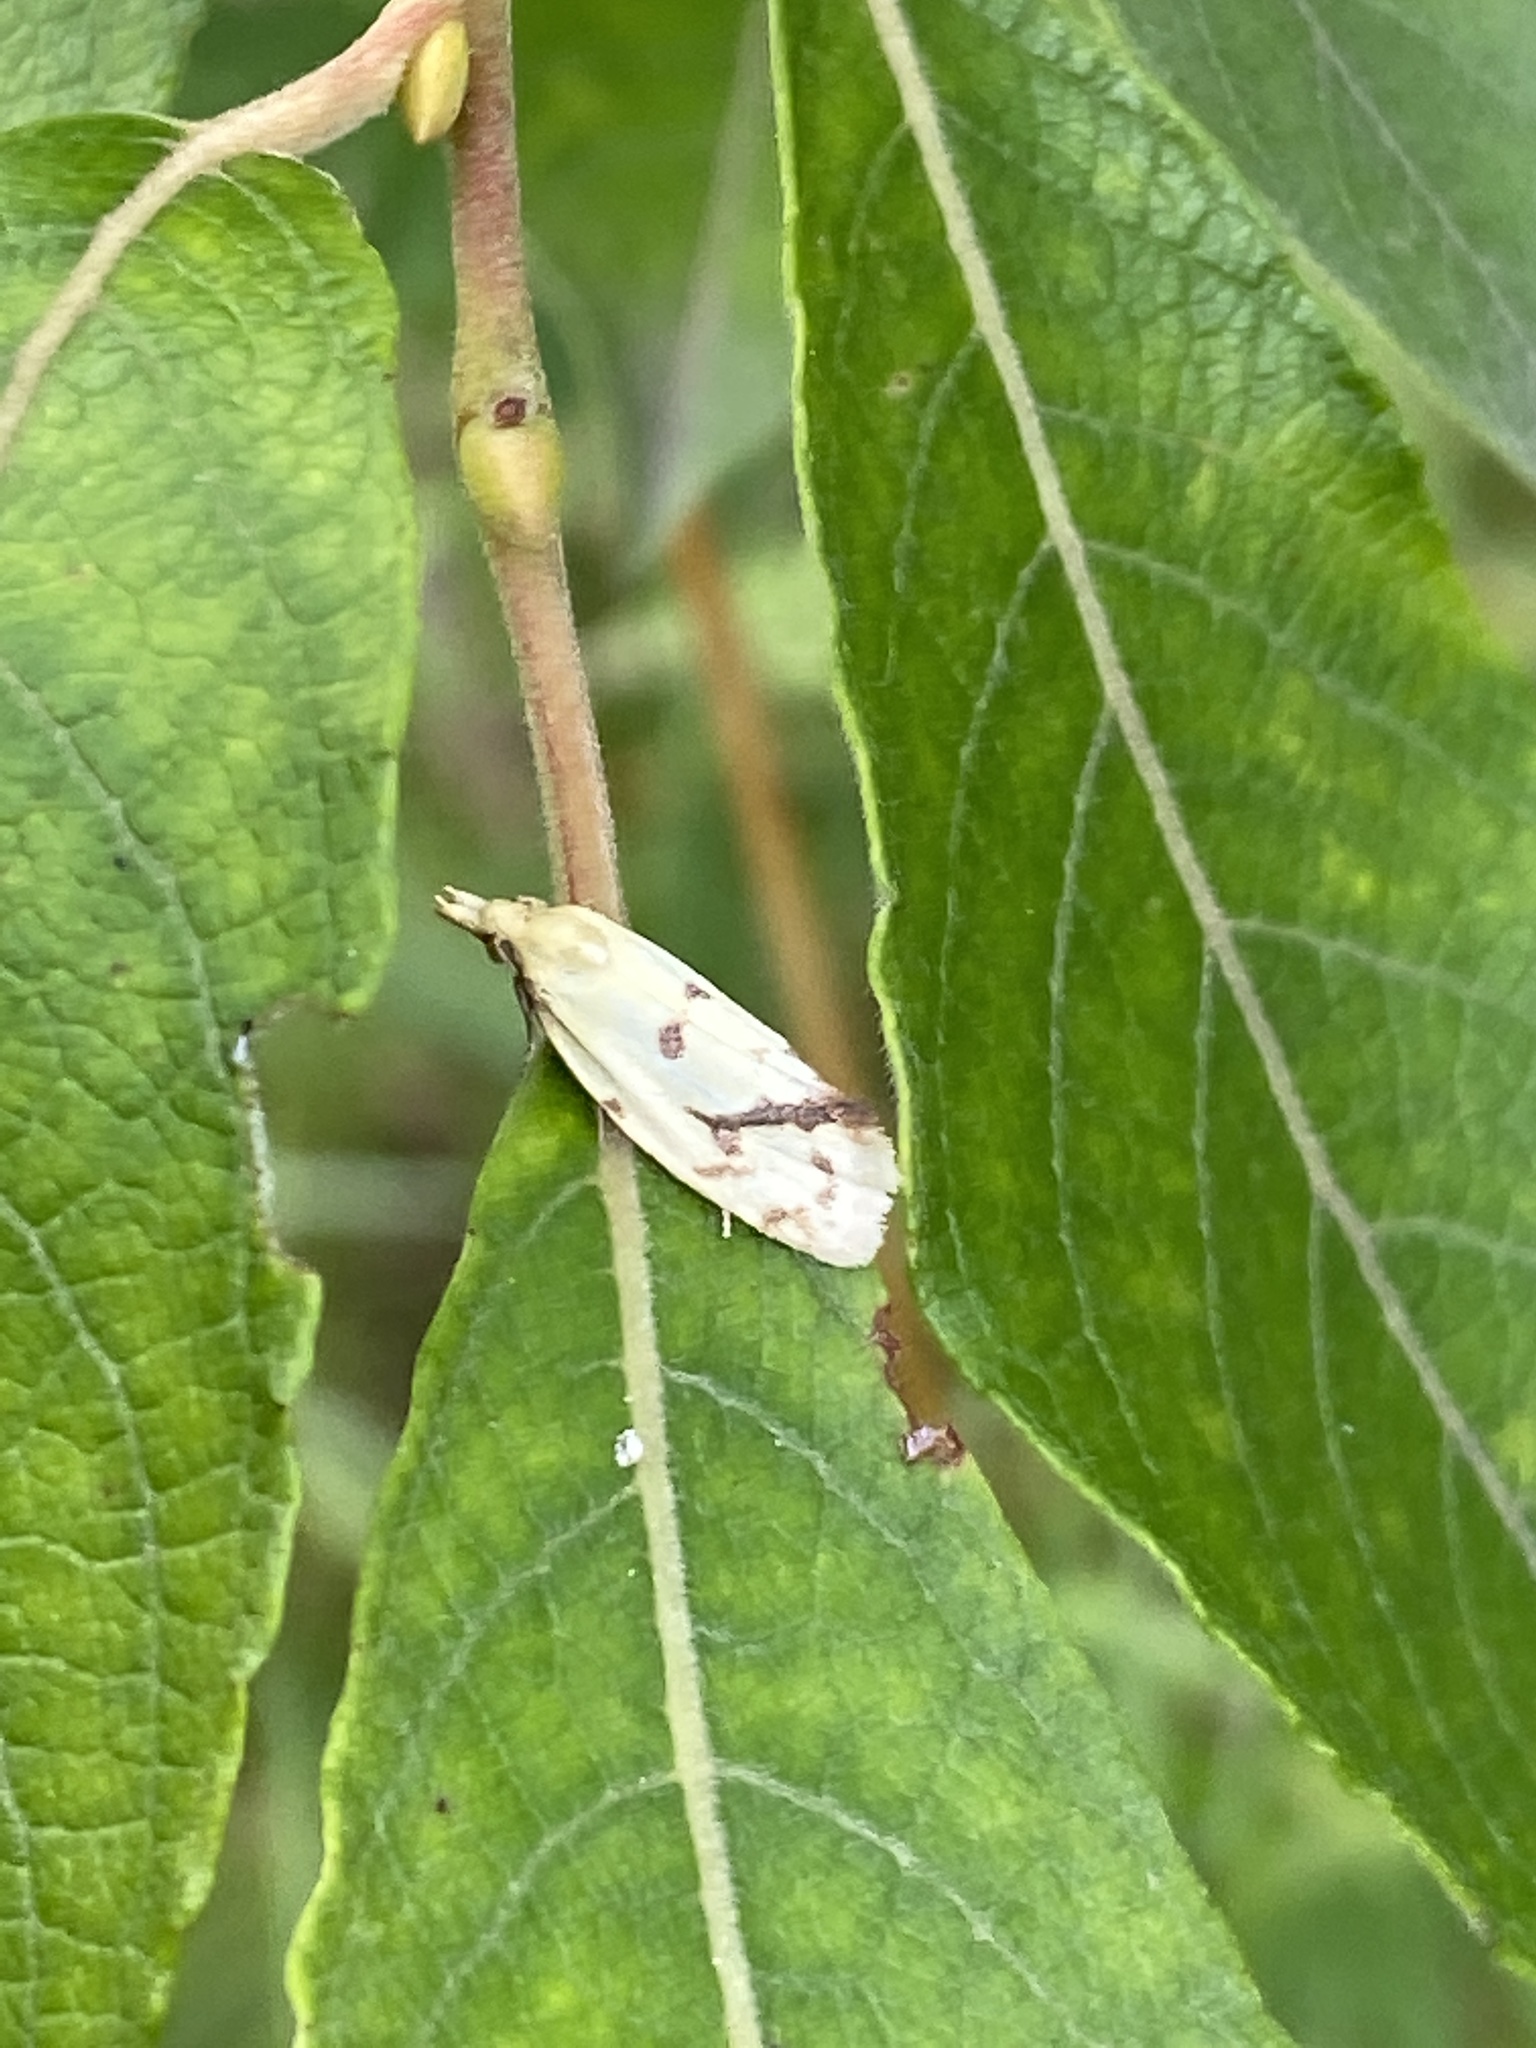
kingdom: Animalia
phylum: Arthropoda
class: Insecta
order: Lepidoptera
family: Tortricidae
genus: Agapeta
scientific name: Agapeta hamana
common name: Common yellow conch
